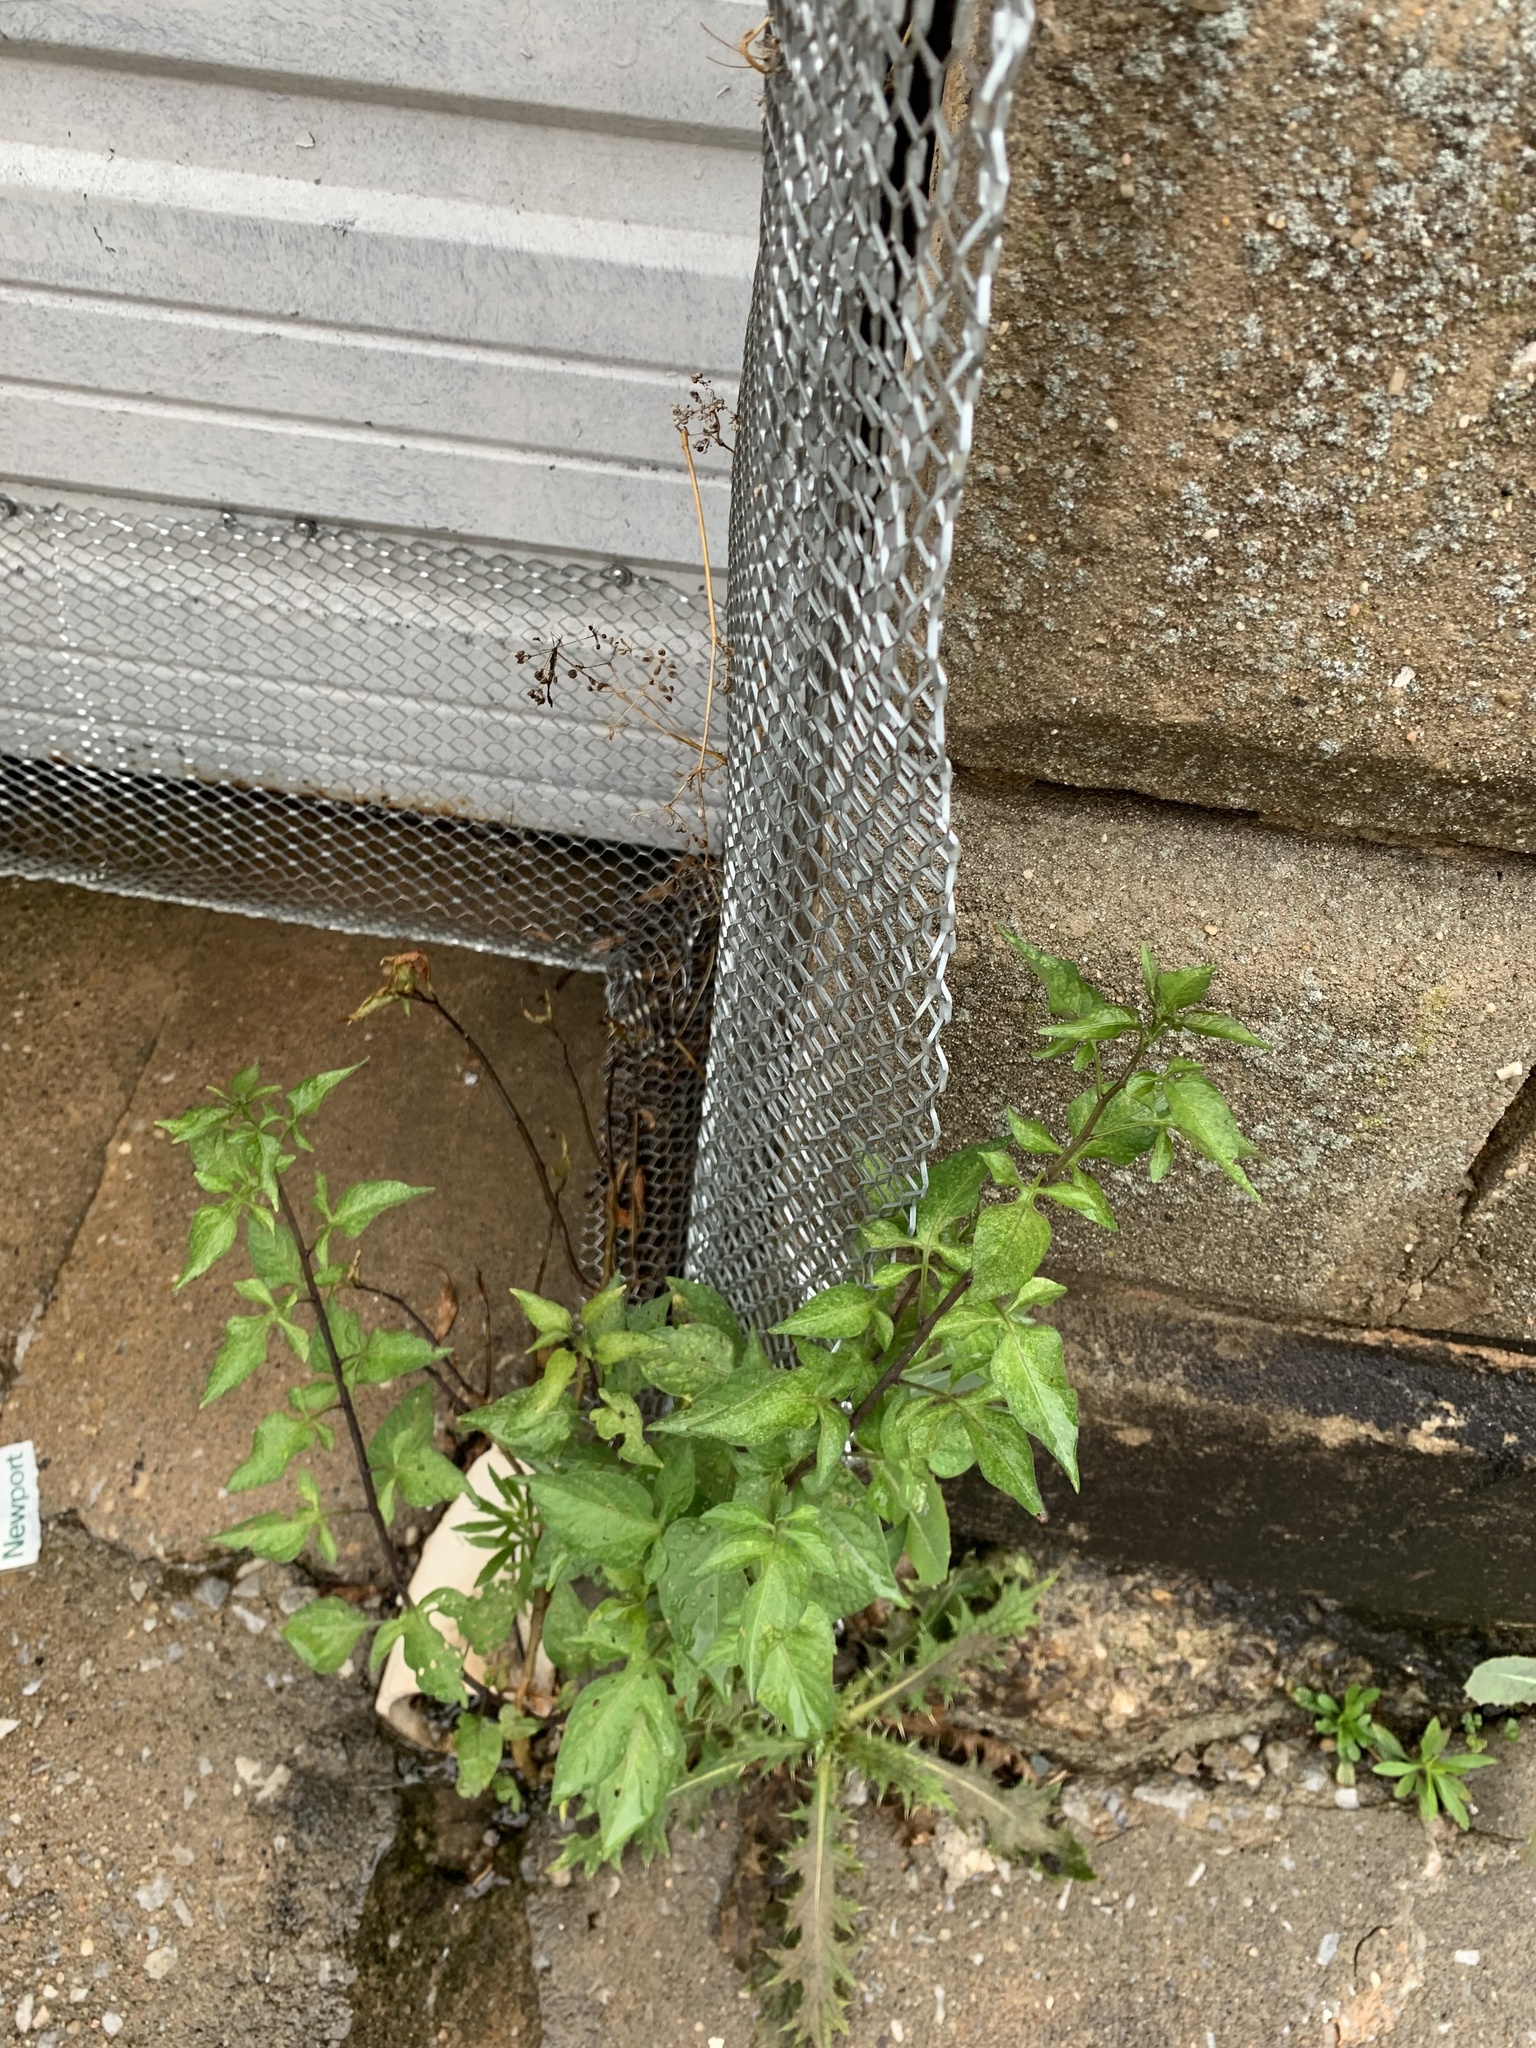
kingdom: Plantae
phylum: Tracheophyta
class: Magnoliopsida
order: Solanales
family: Solanaceae
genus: Solanum
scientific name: Solanum dulcamara
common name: Climbing nightshade
